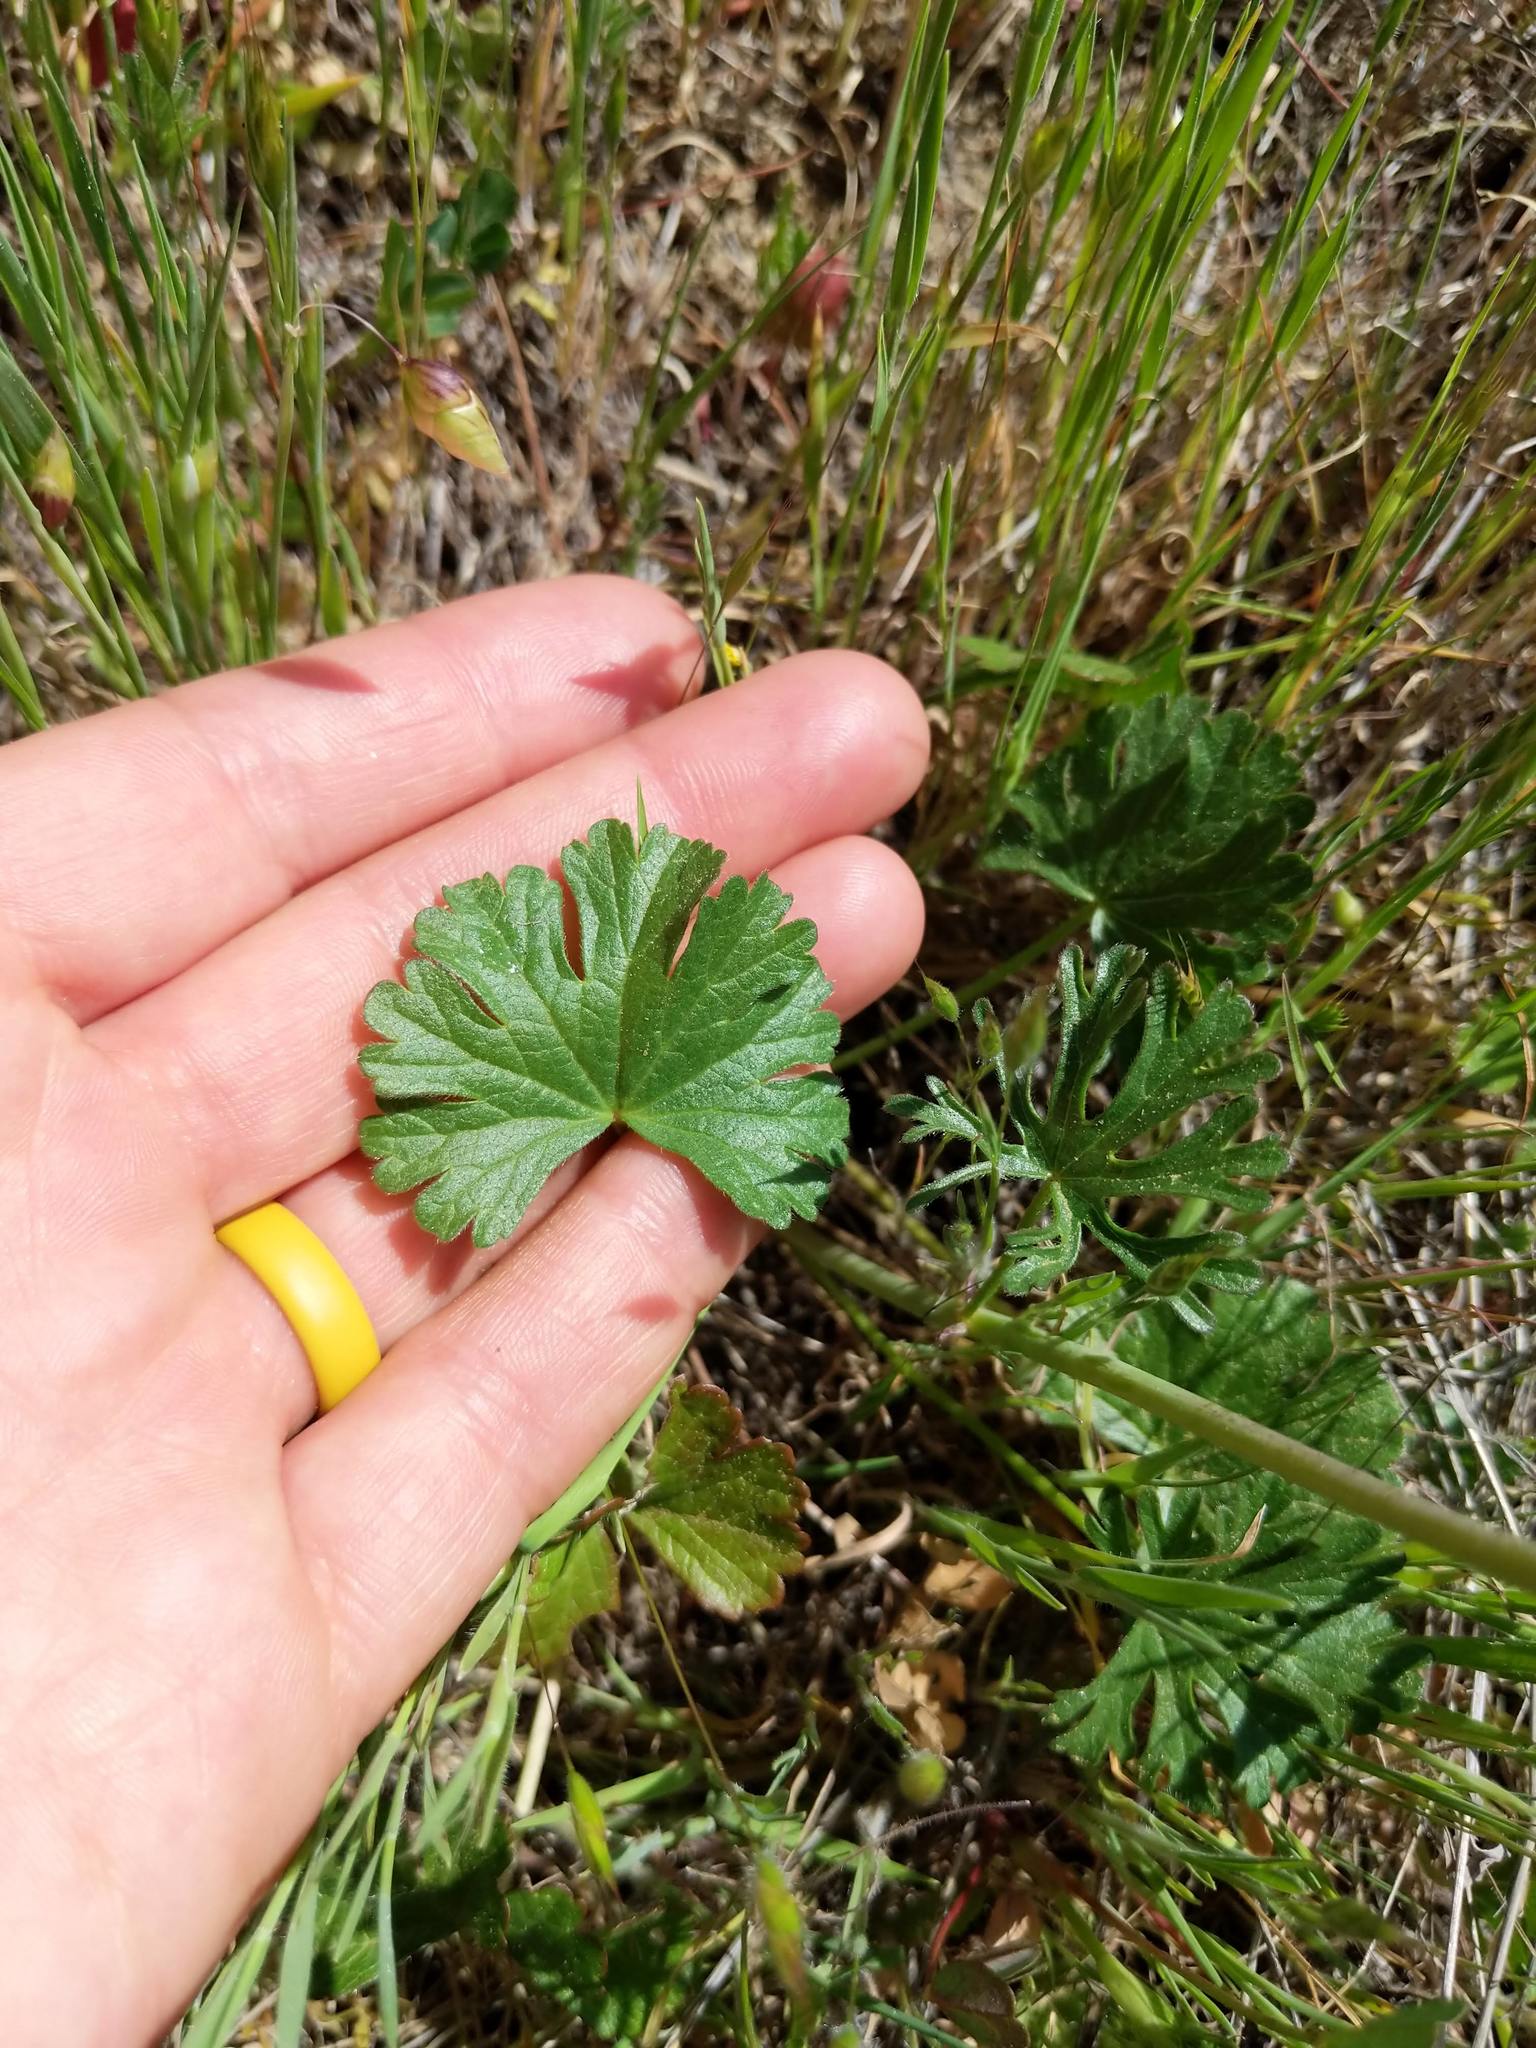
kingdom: Plantae
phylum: Tracheophyta
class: Magnoliopsida
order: Malvales
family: Malvaceae
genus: Sidalcea
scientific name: Sidalcea malviflora
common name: Greek mallow
